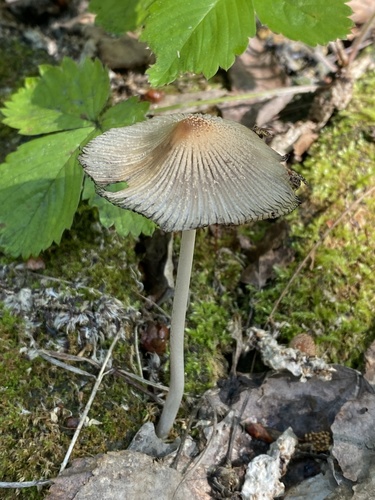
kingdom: Fungi
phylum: Basidiomycota
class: Agaricomycetes
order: Agaricales
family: Psathyrellaceae
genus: Coprinellus
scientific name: Coprinellus domesticus
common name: Firerug inkcap
